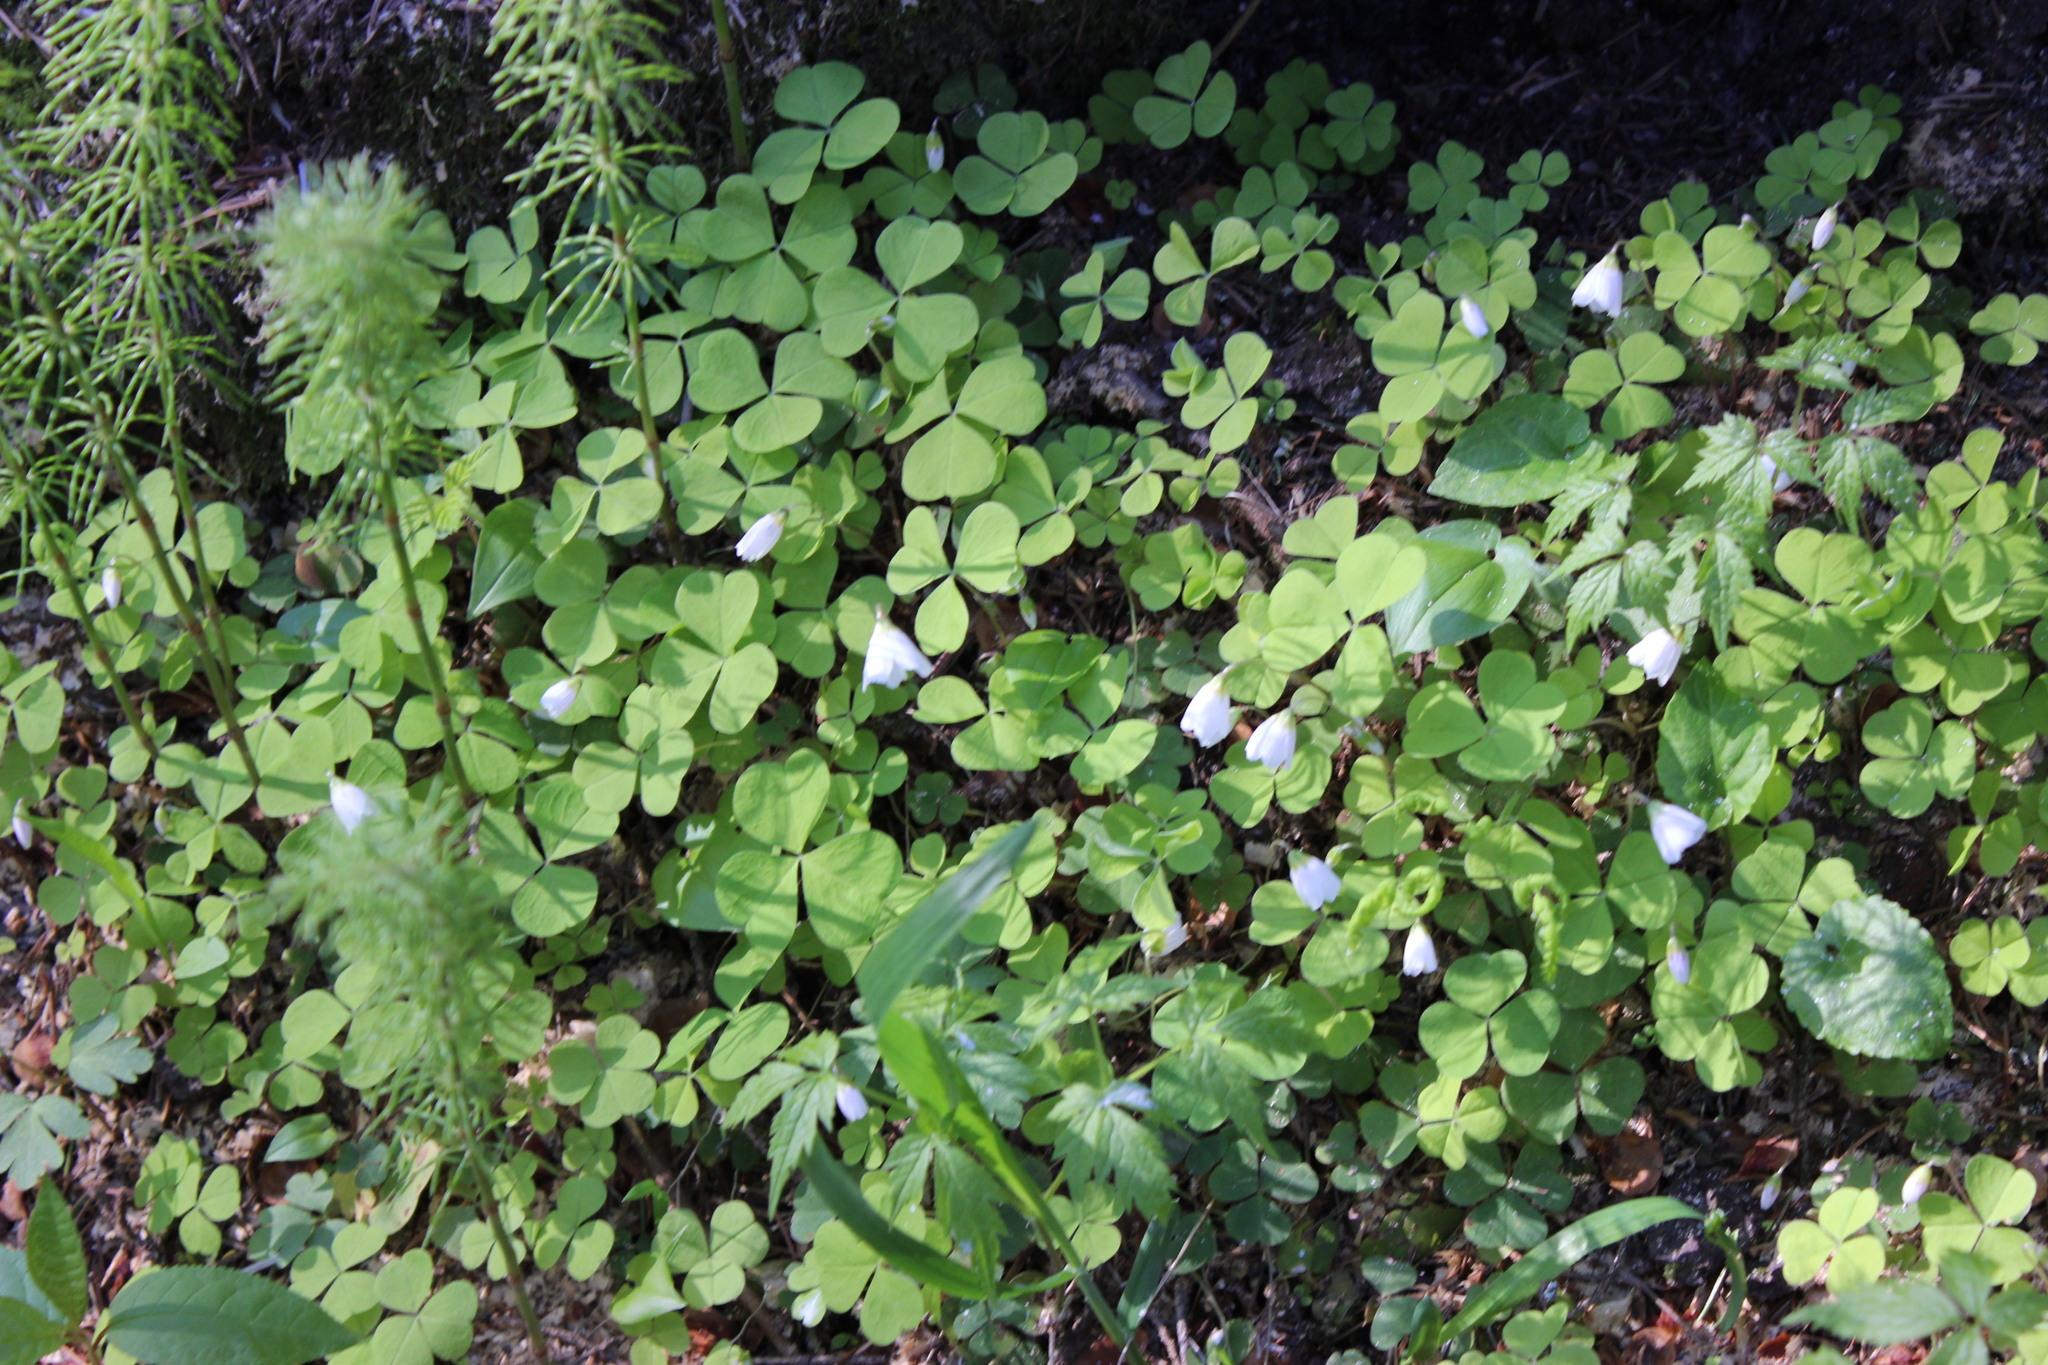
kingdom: Plantae
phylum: Tracheophyta
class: Magnoliopsida
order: Oxalidales
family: Oxalidaceae
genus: Oxalis
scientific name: Oxalis acetosella
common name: Wood-sorrel
